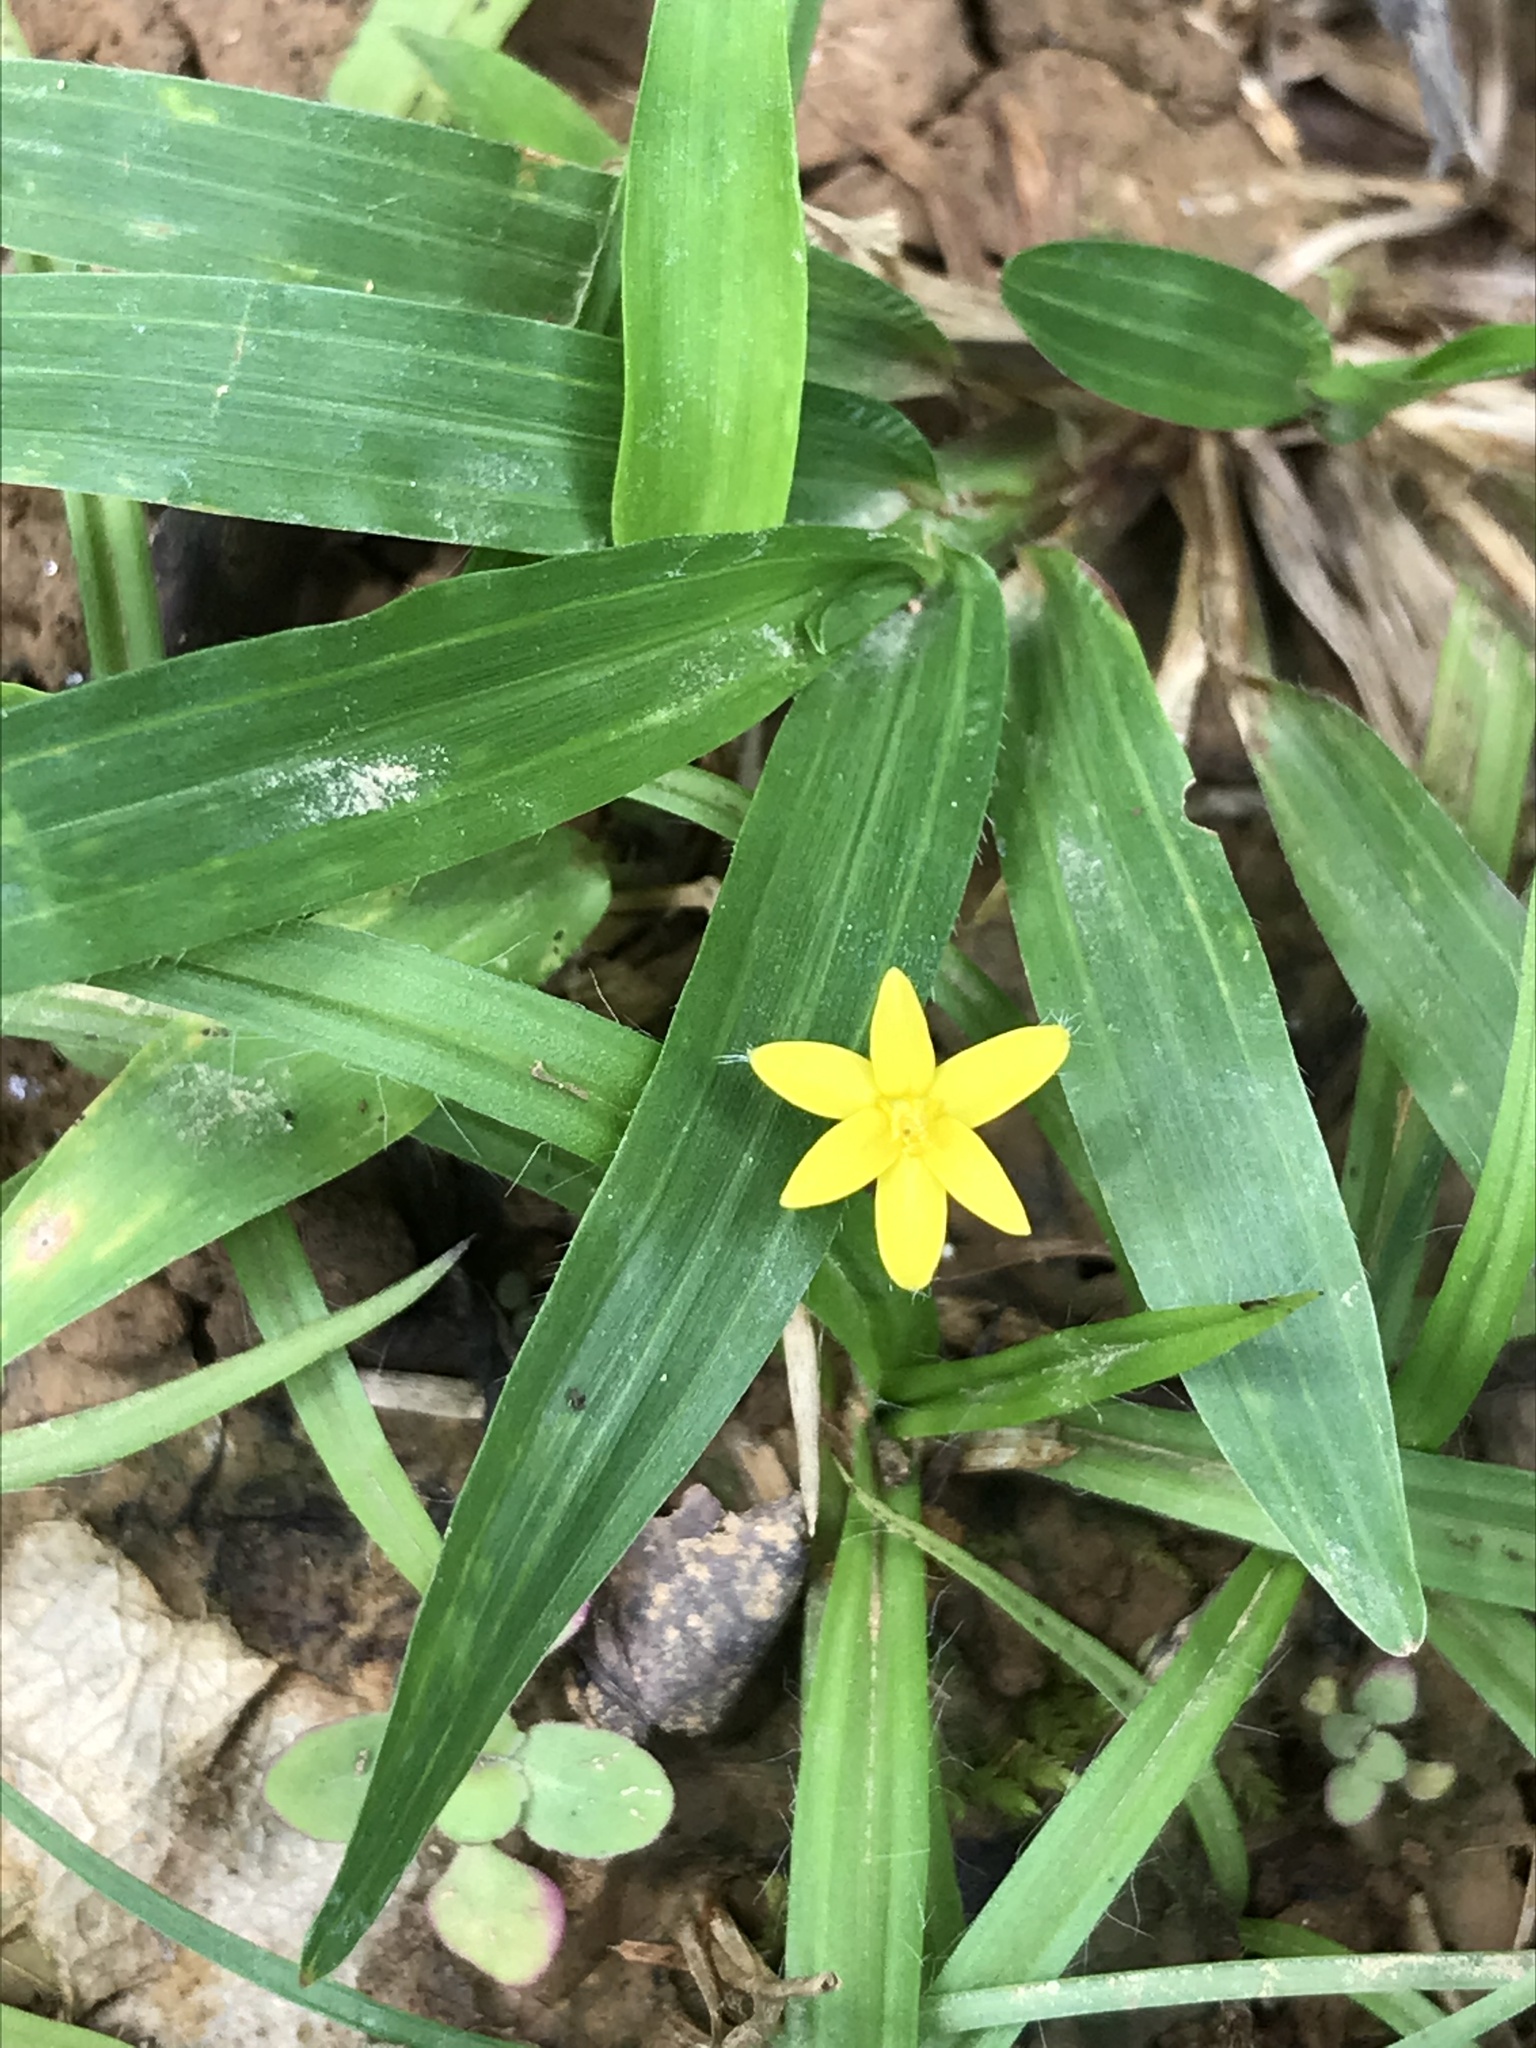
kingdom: Plantae
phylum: Tracheophyta
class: Liliopsida
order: Asparagales
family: Hypoxidaceae
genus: Hypoxis
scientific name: Hypoxis decumbens
